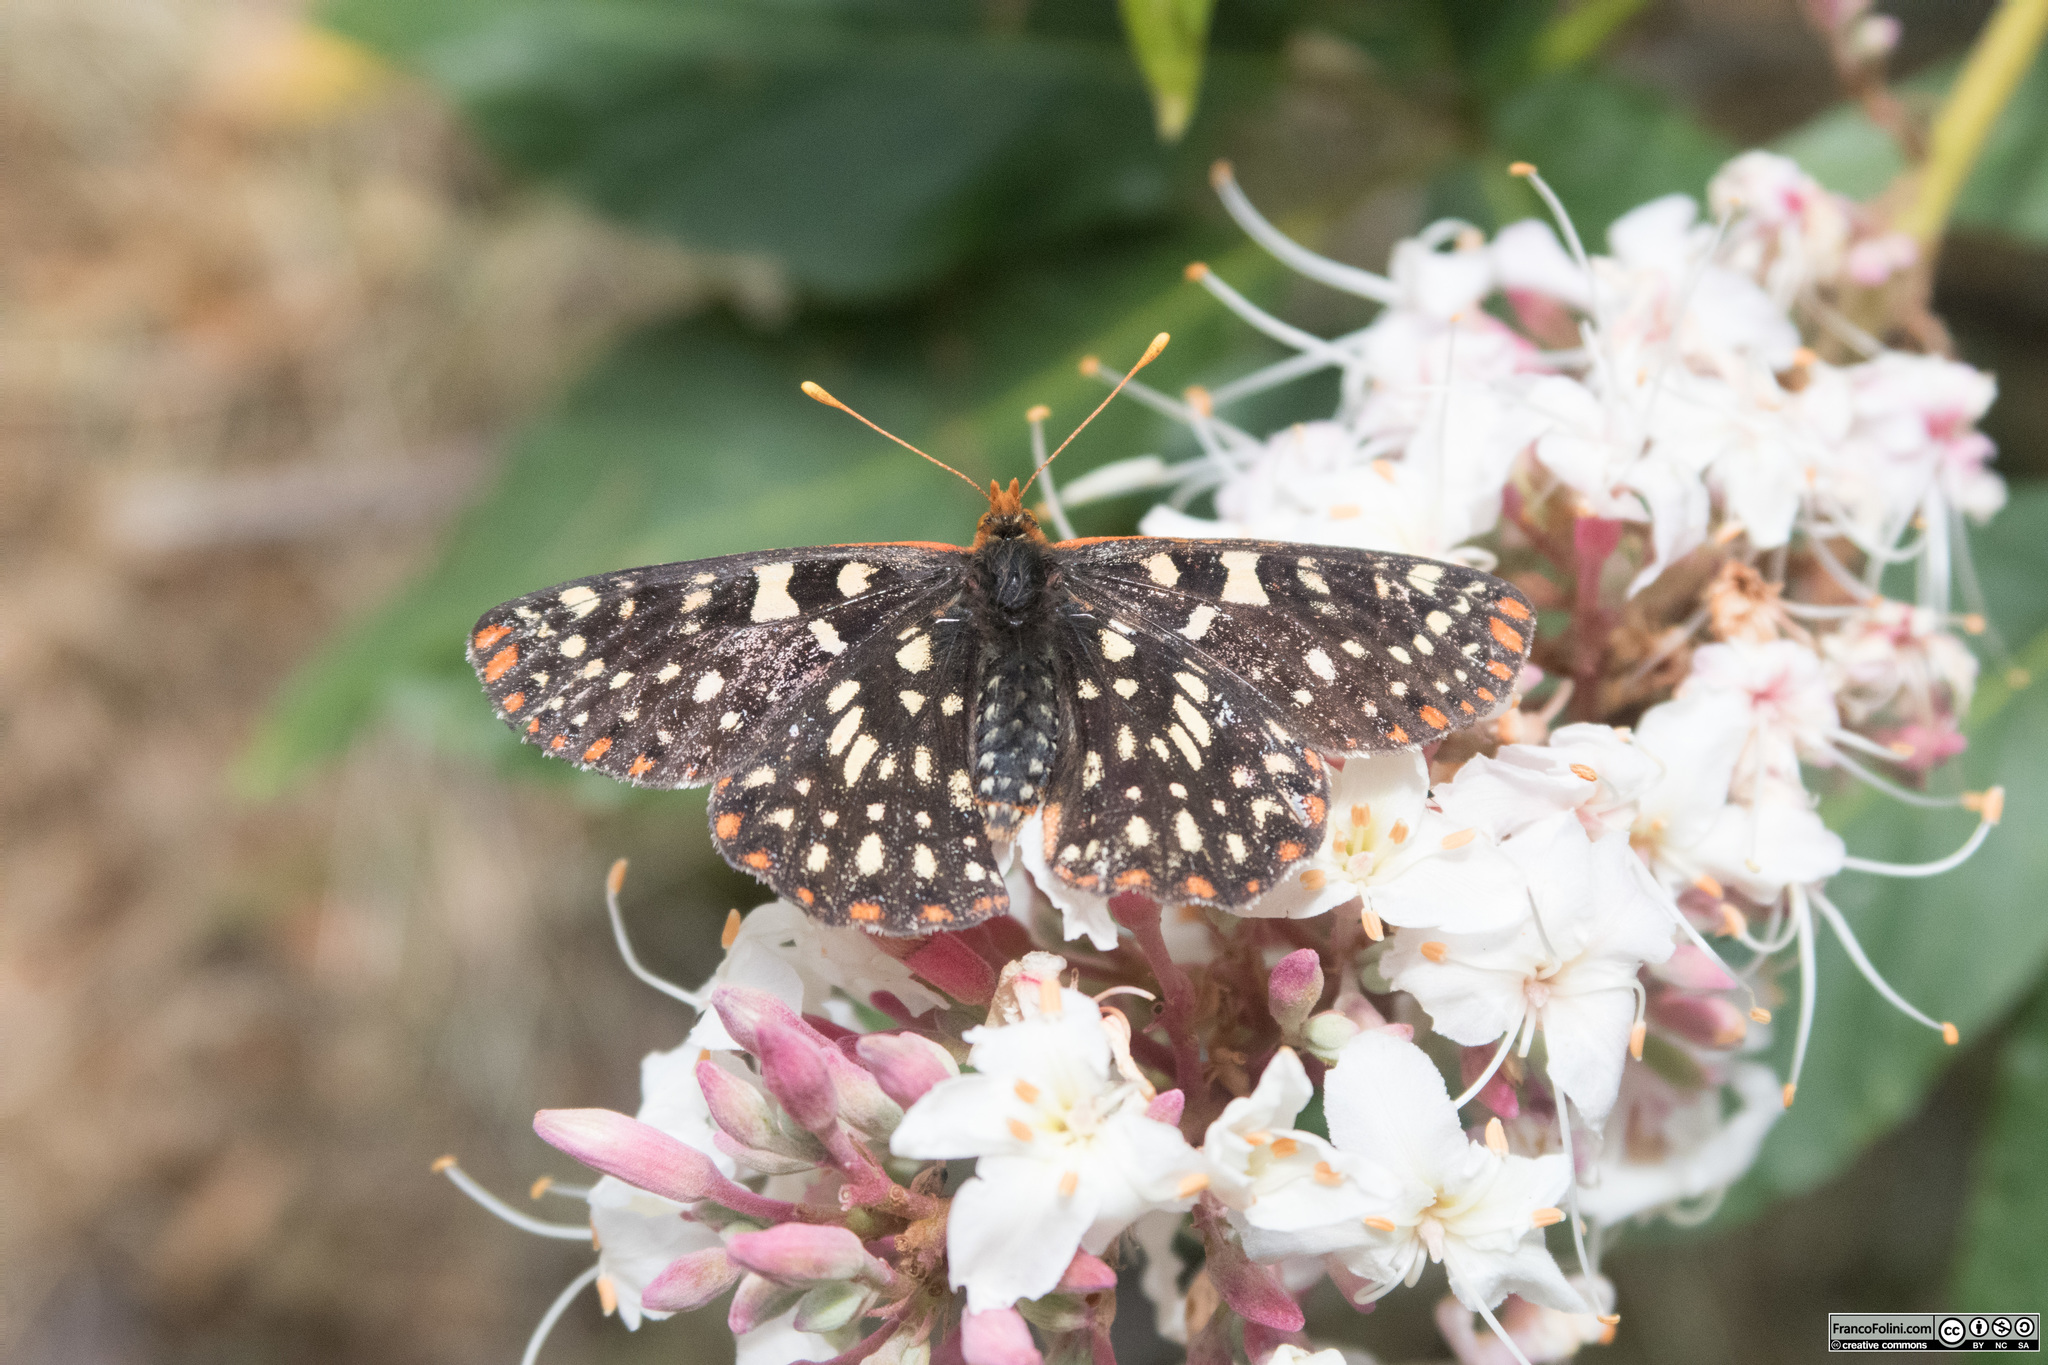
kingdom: Animalia
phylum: Arthropoda
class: Insecta
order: Lepidoptera
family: Nymphalidae
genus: Occidryas
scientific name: Occidryas chalcedona
